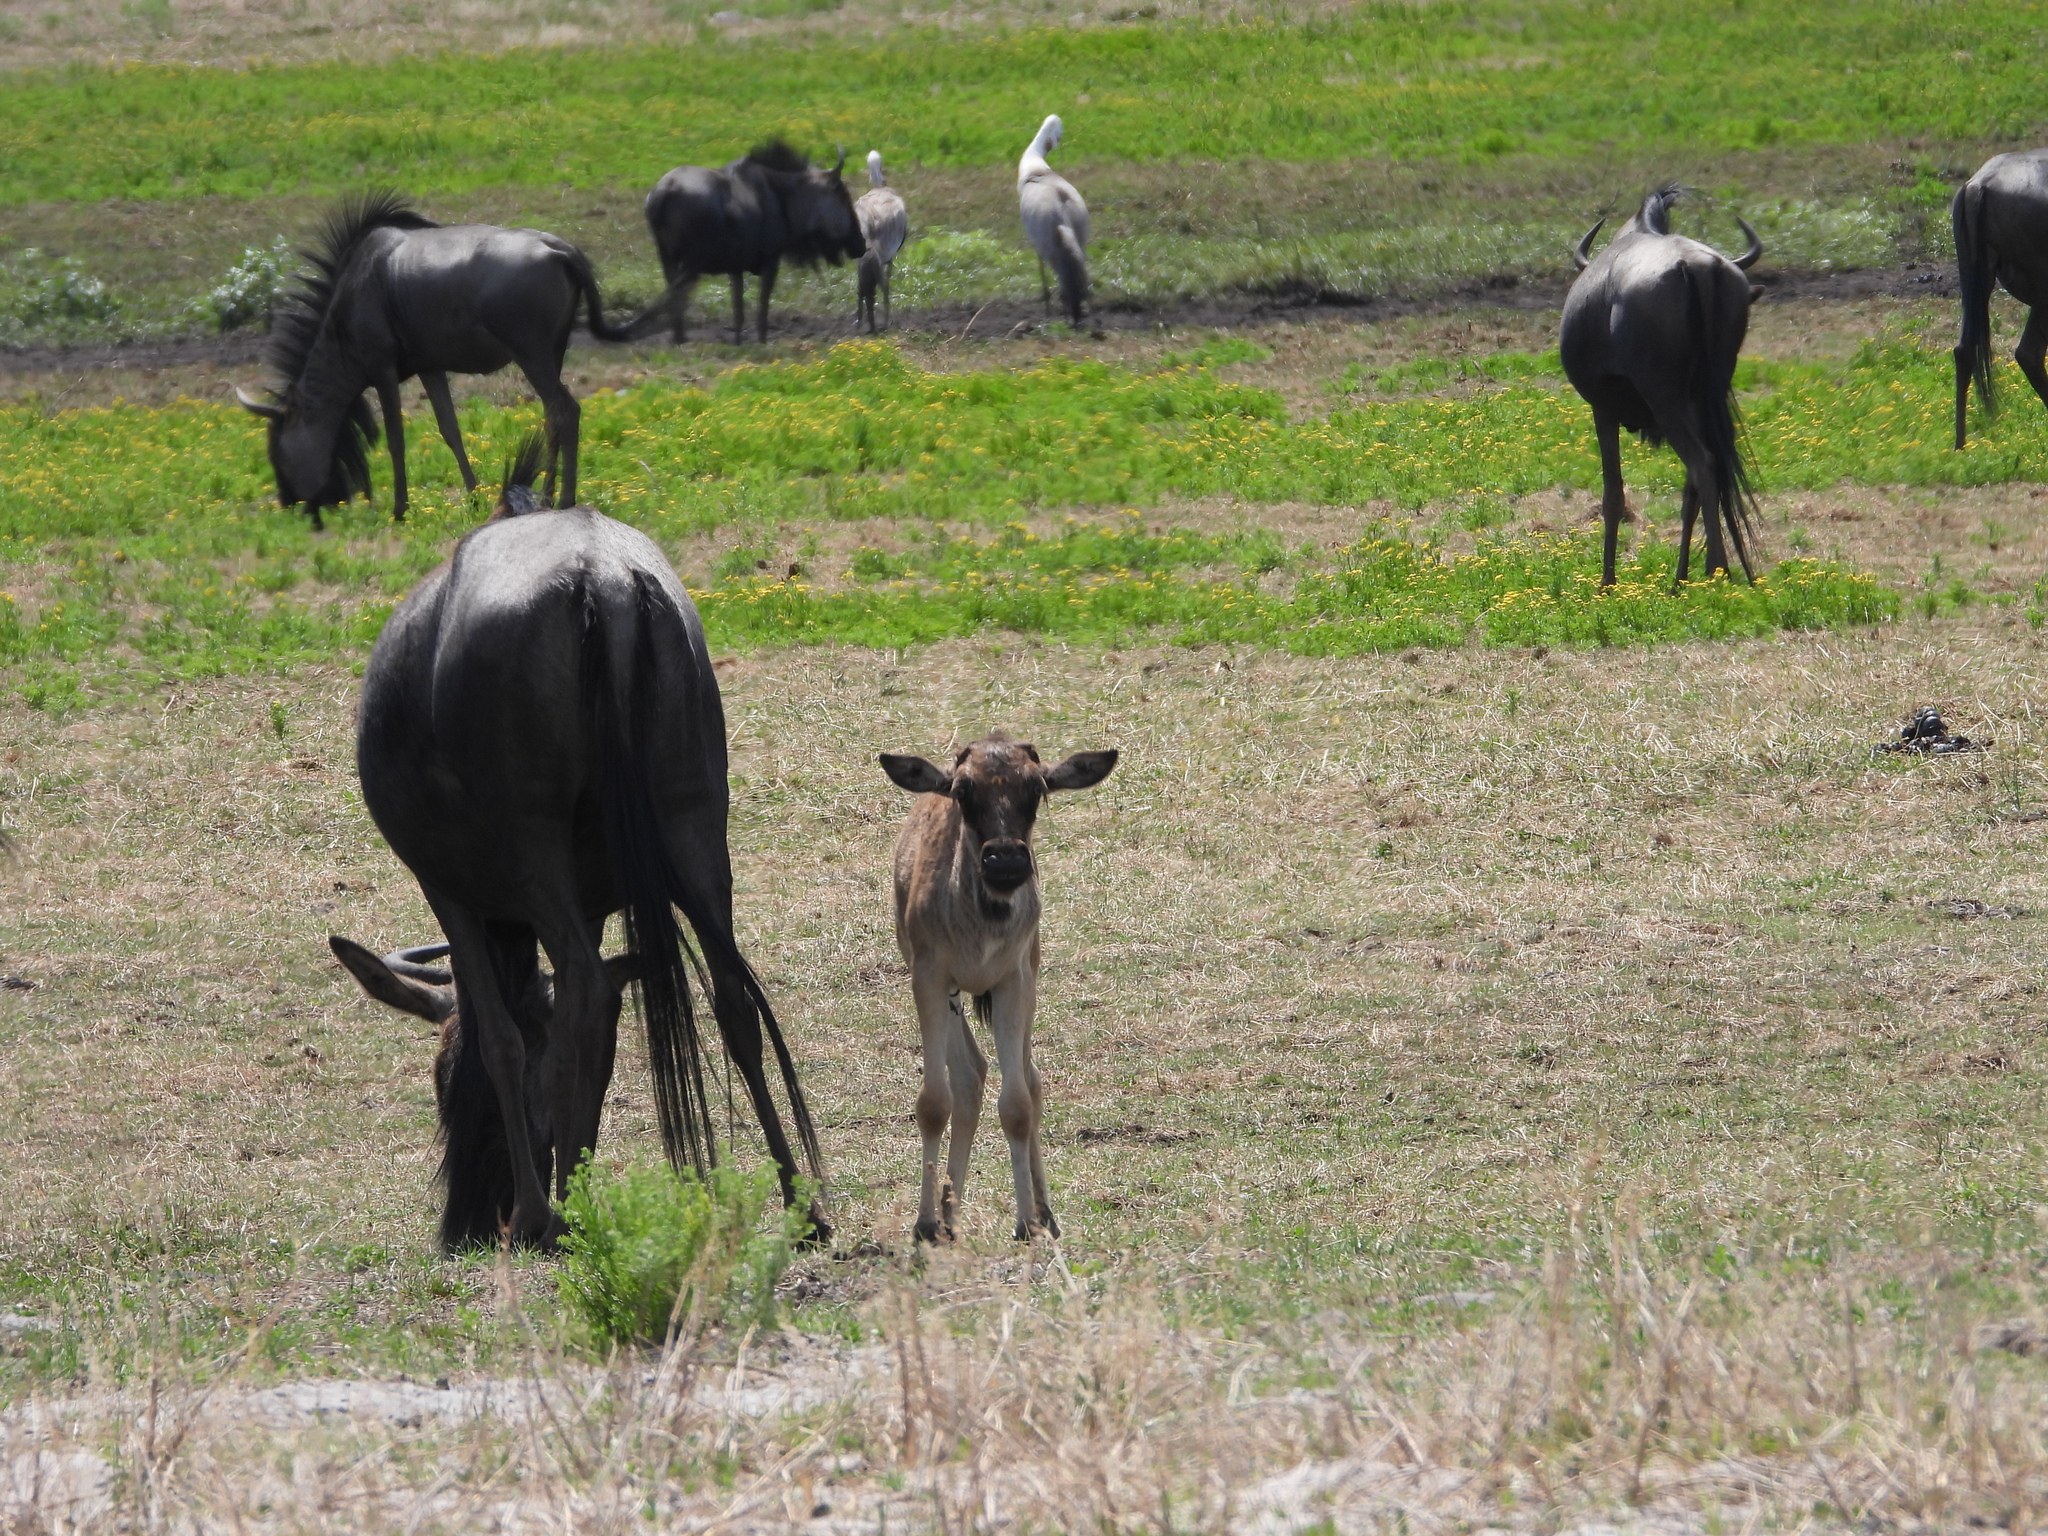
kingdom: Animalia
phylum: Chordata
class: Mammalia
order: Artiodactyla
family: Bovidae
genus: Connochaetes
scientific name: Connochaetes taurinus
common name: Blue wildebeest
